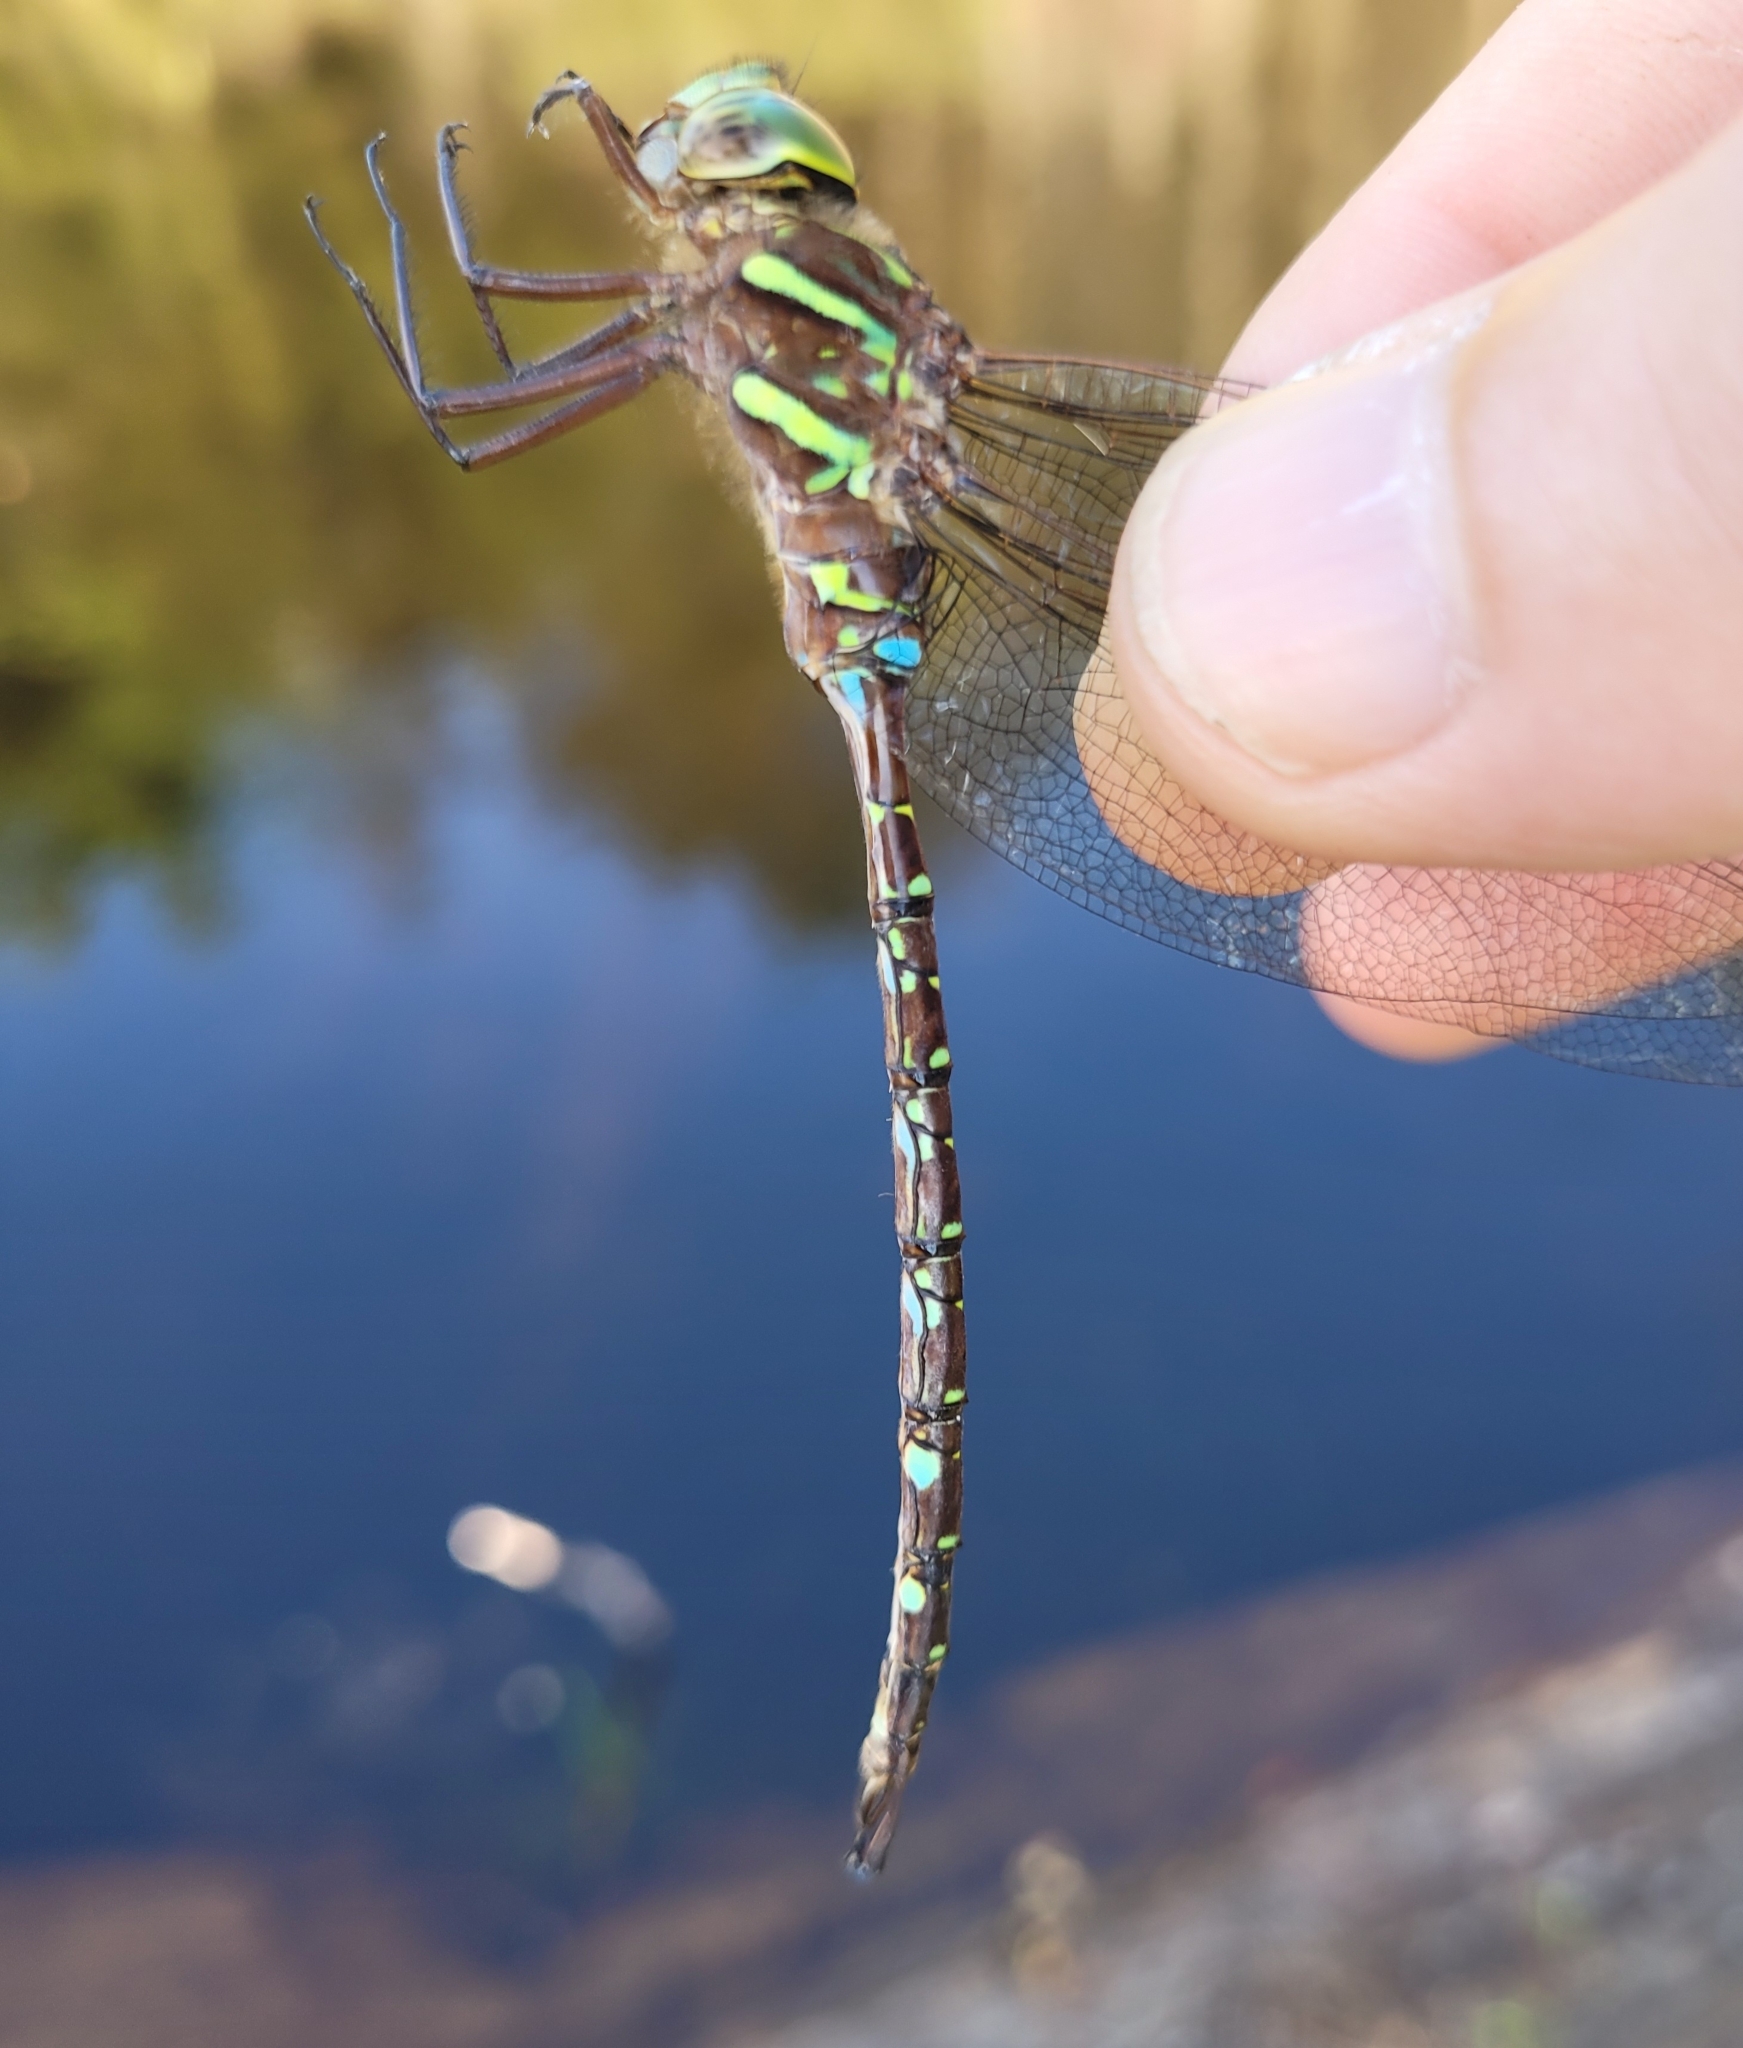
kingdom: Animalia
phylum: Arthropoda
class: Insecta
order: Odonata
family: Aeshnidae
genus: Aeshna
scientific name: Aeshna umbrosa
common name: Shadow darner
